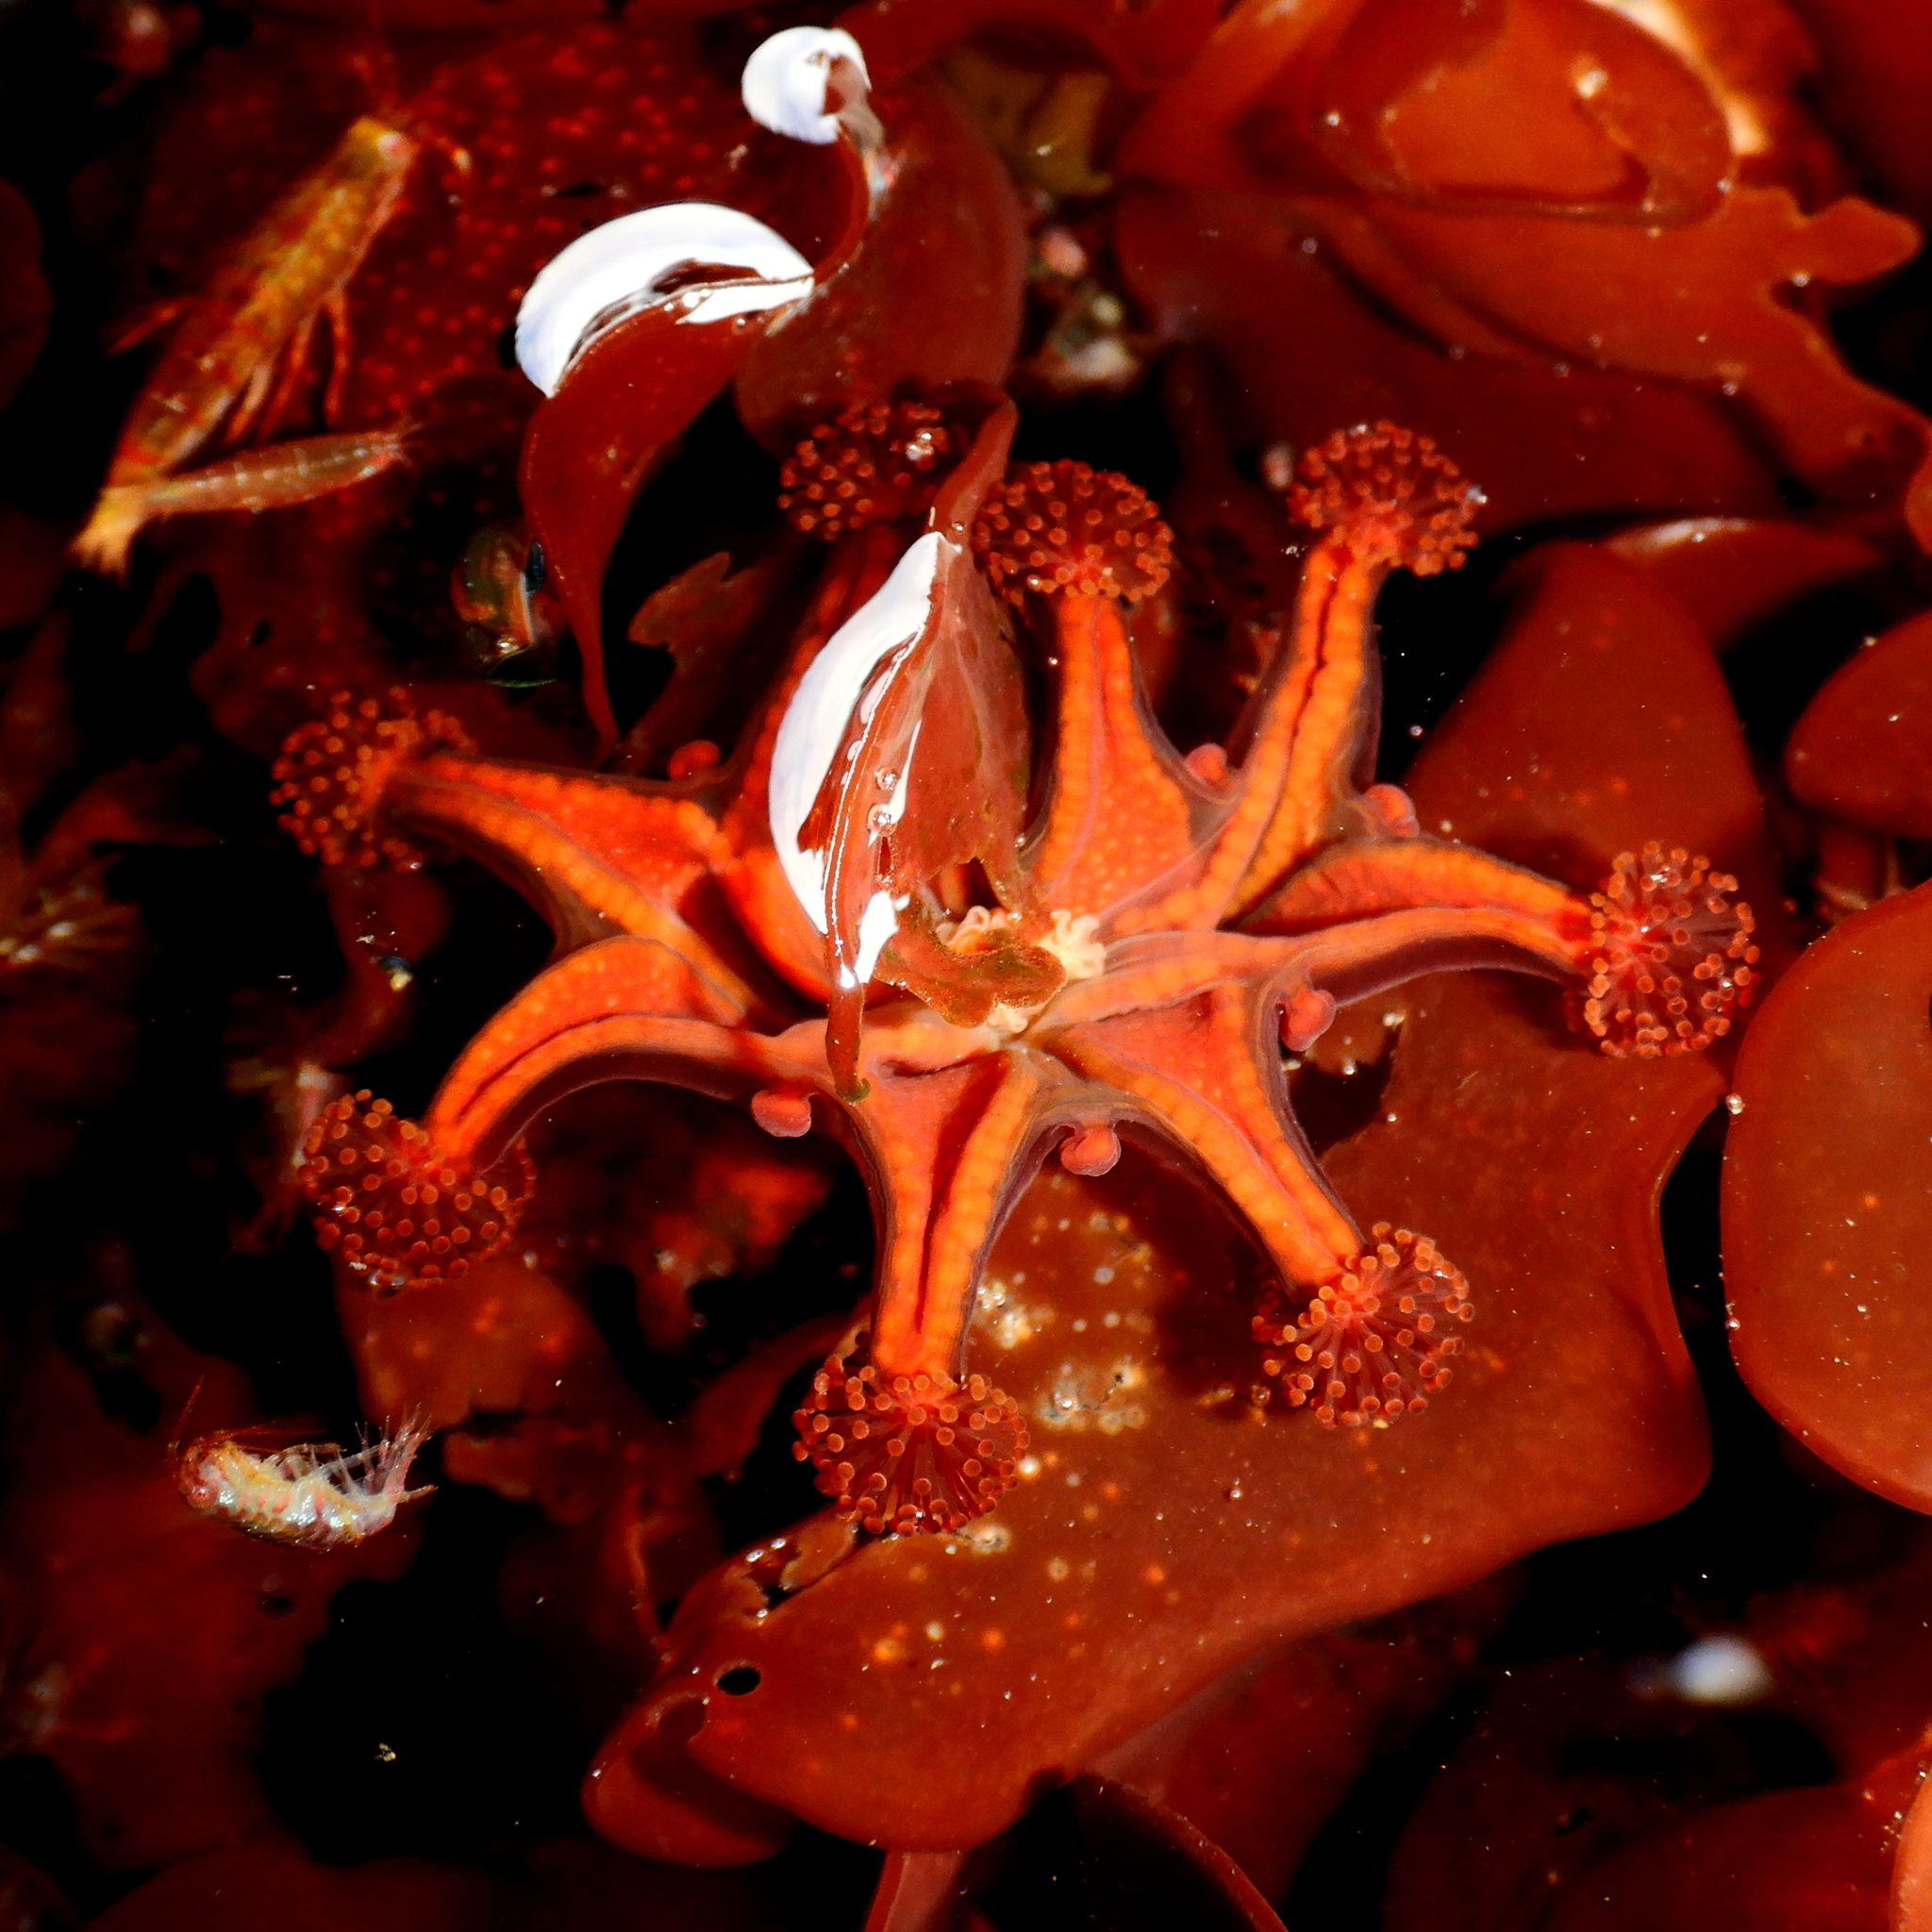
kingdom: Animalia
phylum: Cnidaria
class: Staurozoa
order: Stauromedusae
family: Haliclystidae
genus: Haliclystus
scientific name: Haliclystus antarcticus
